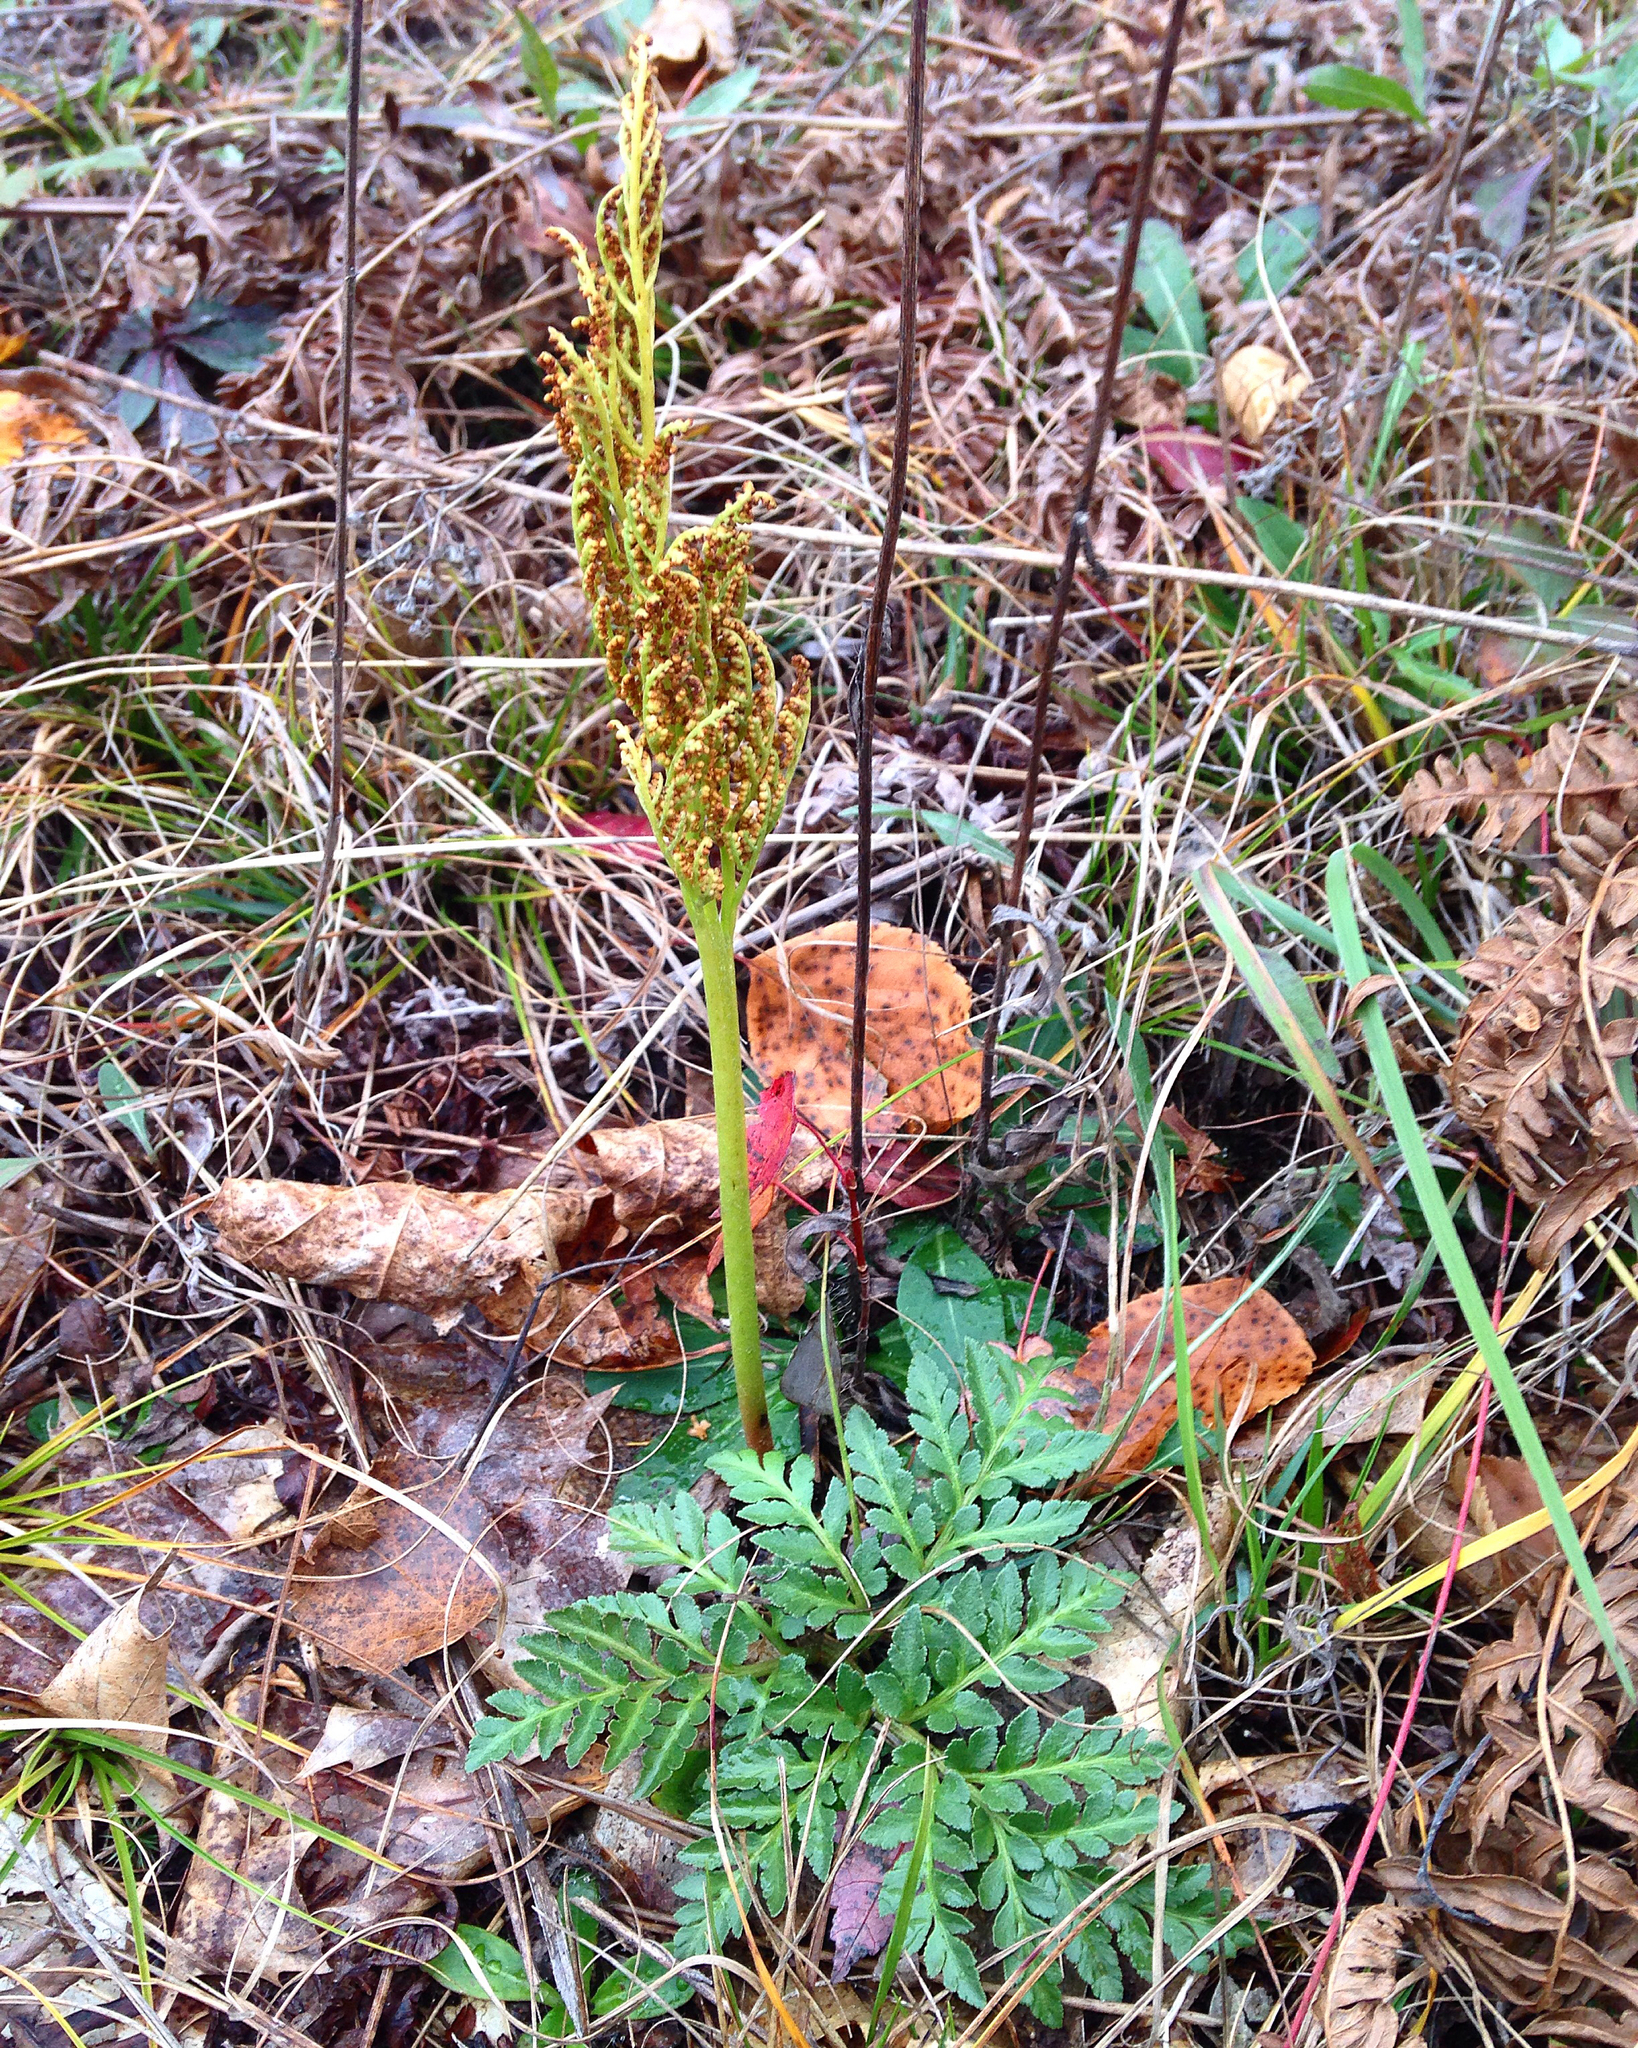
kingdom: Plantae
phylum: Tracheophyta
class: Polypodiopsida
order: Ophioglossales
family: Ophioglossaceae
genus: Sceptridium
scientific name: Sceptridium multifidum
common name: Leathery grape fern
